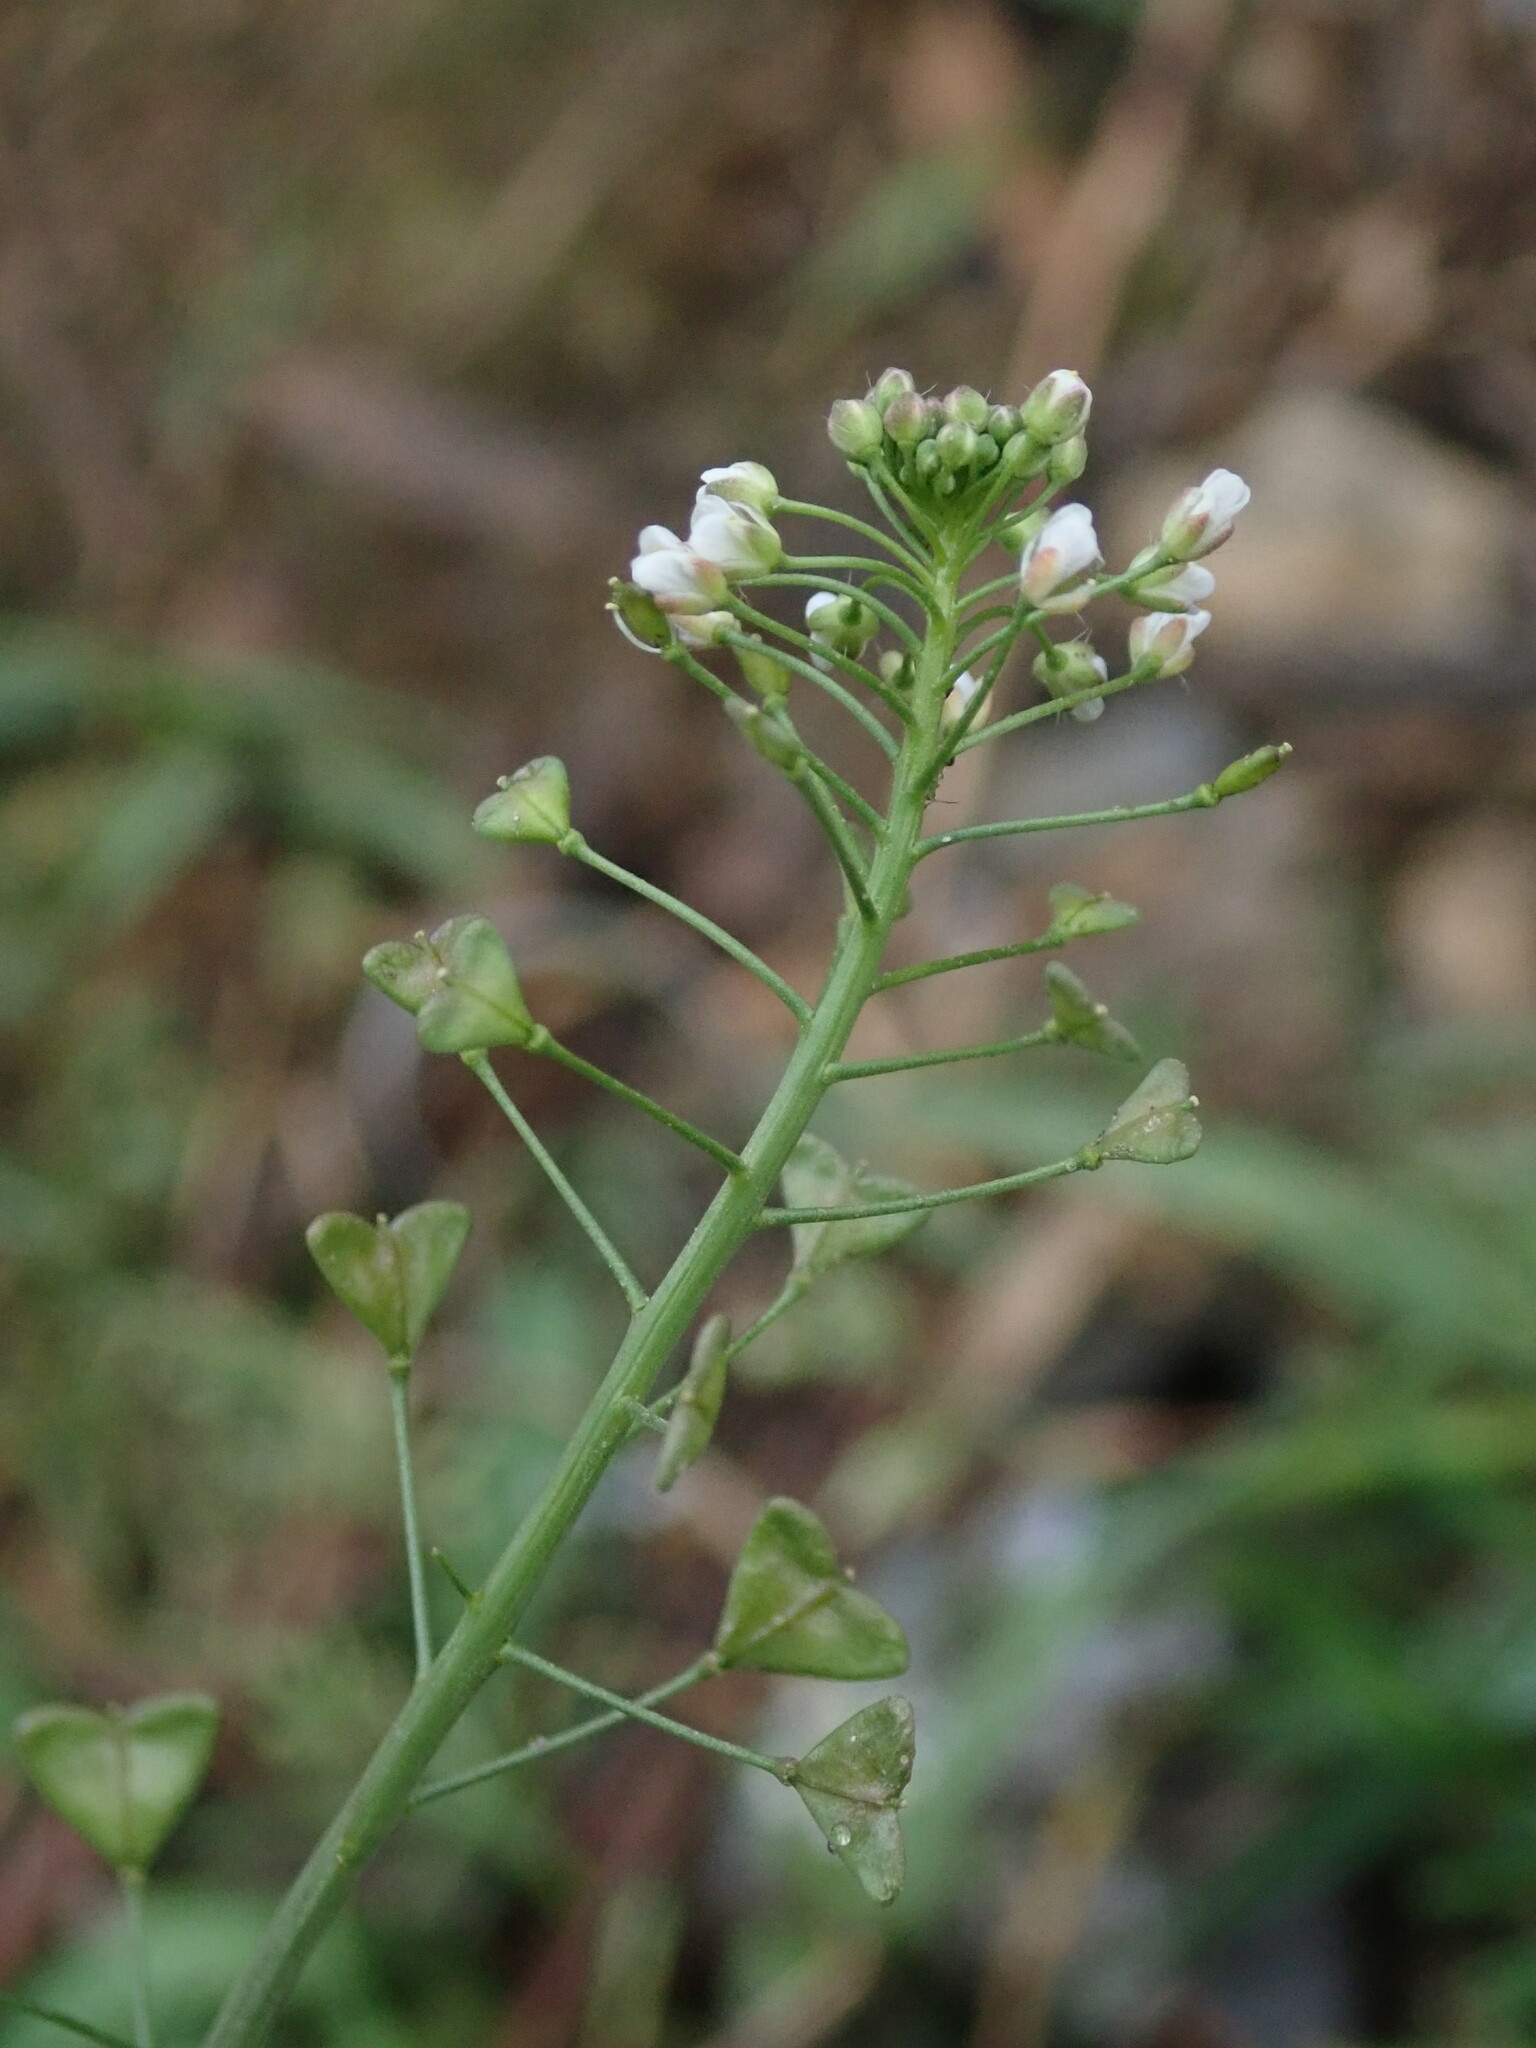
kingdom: Plantae
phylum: Tracheophyta
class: Magnoliopsida
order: Brassicales
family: Brassicaceae
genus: Capsella
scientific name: Capsella bursa-pastoris
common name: Shepherd's purse
